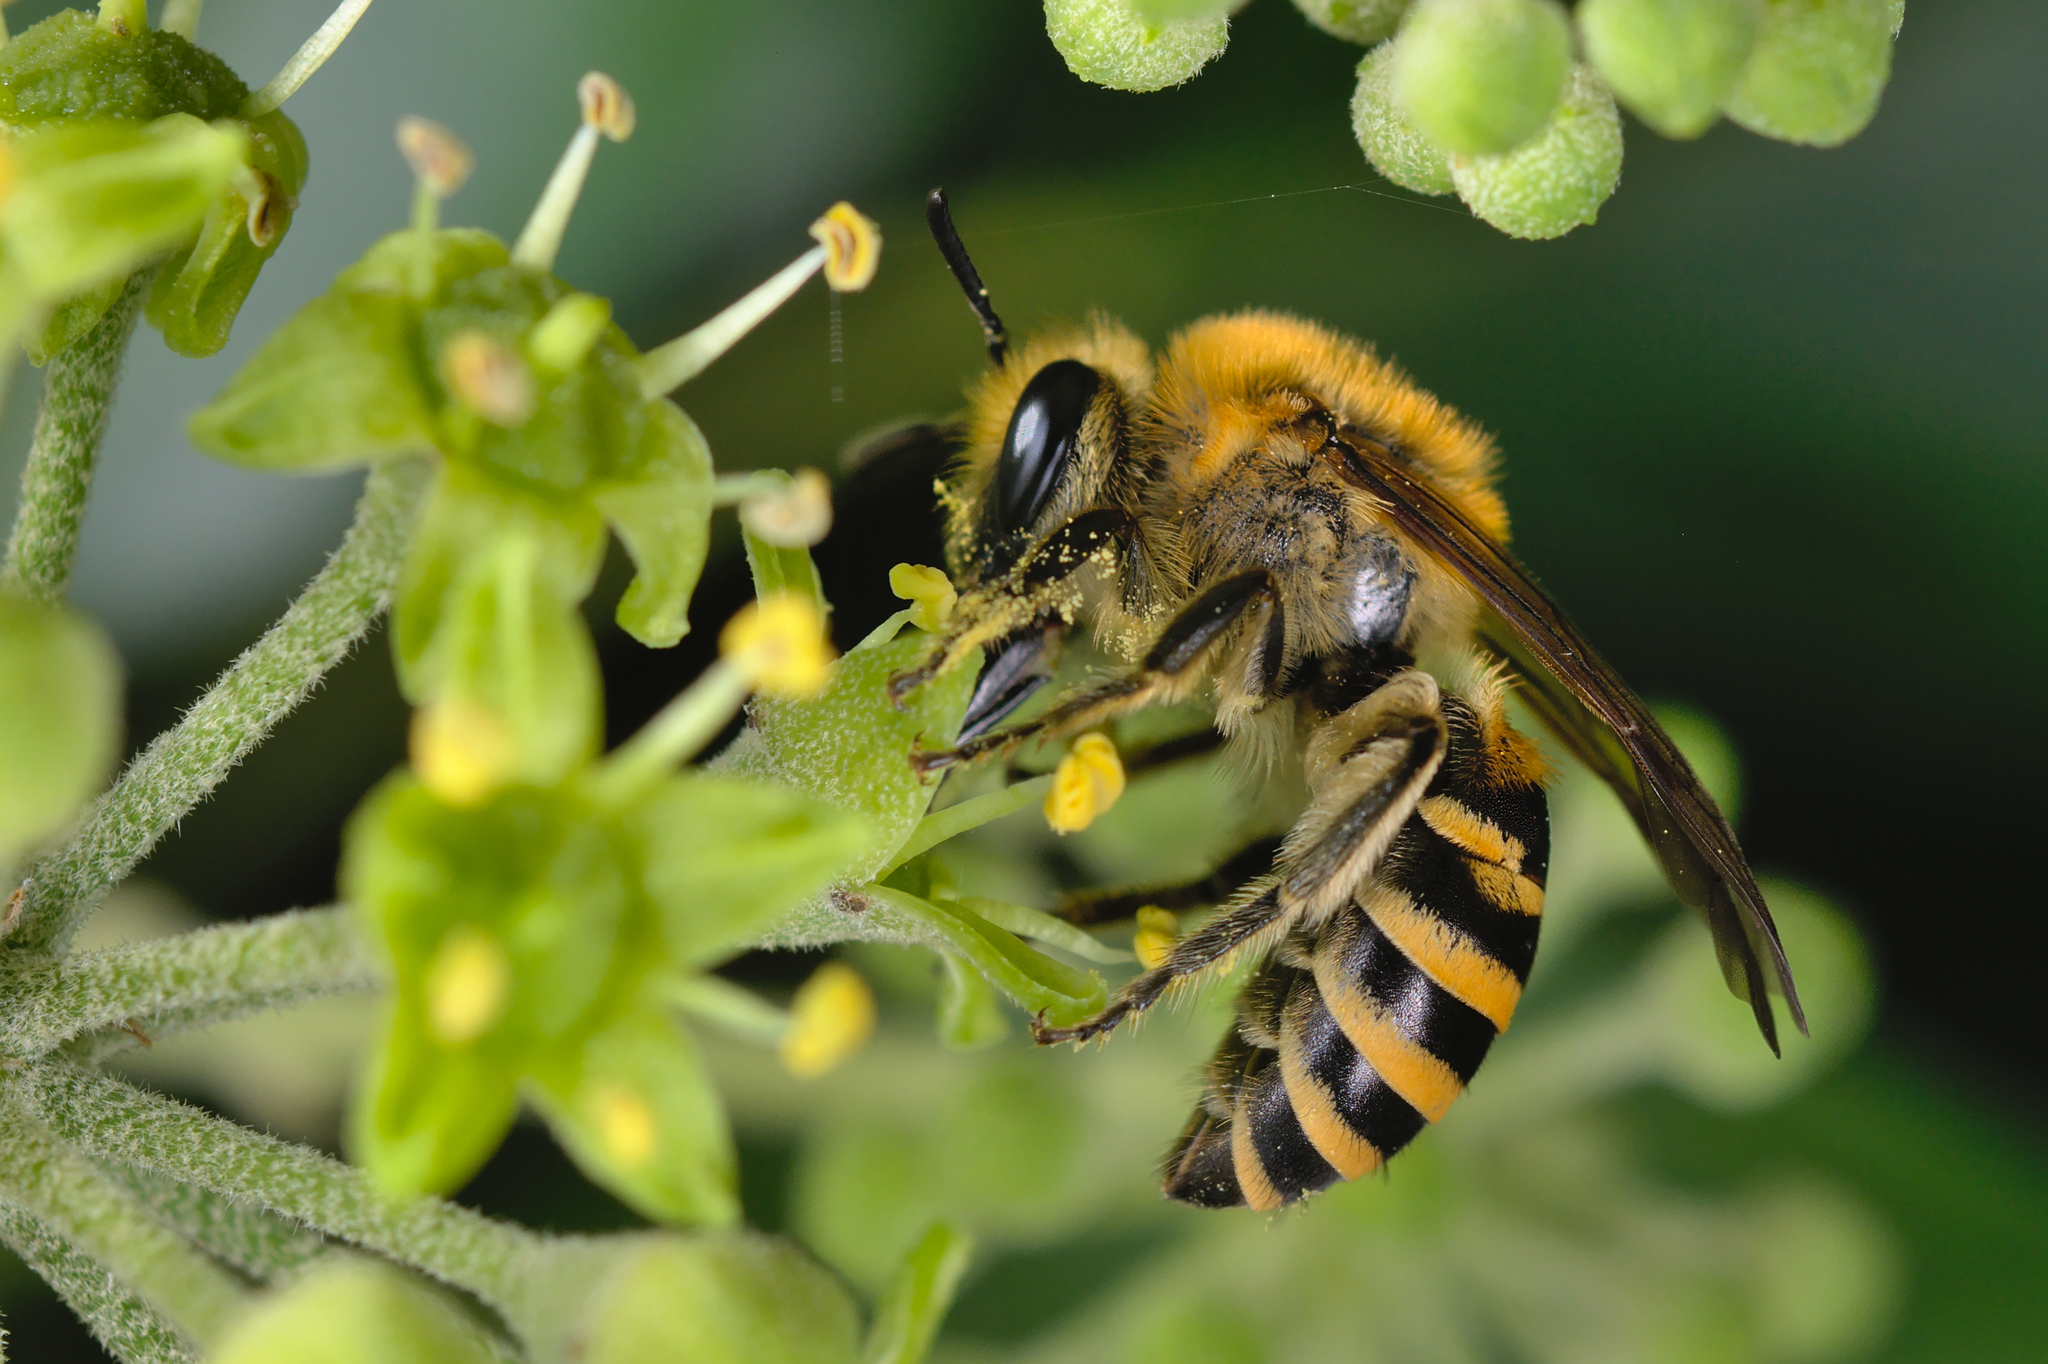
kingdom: Animalia
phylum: Arthropoda
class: Insecta
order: Hymenoptera
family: Colletidae
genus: Colletes
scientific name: Colletes hederae
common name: Ivy bee
